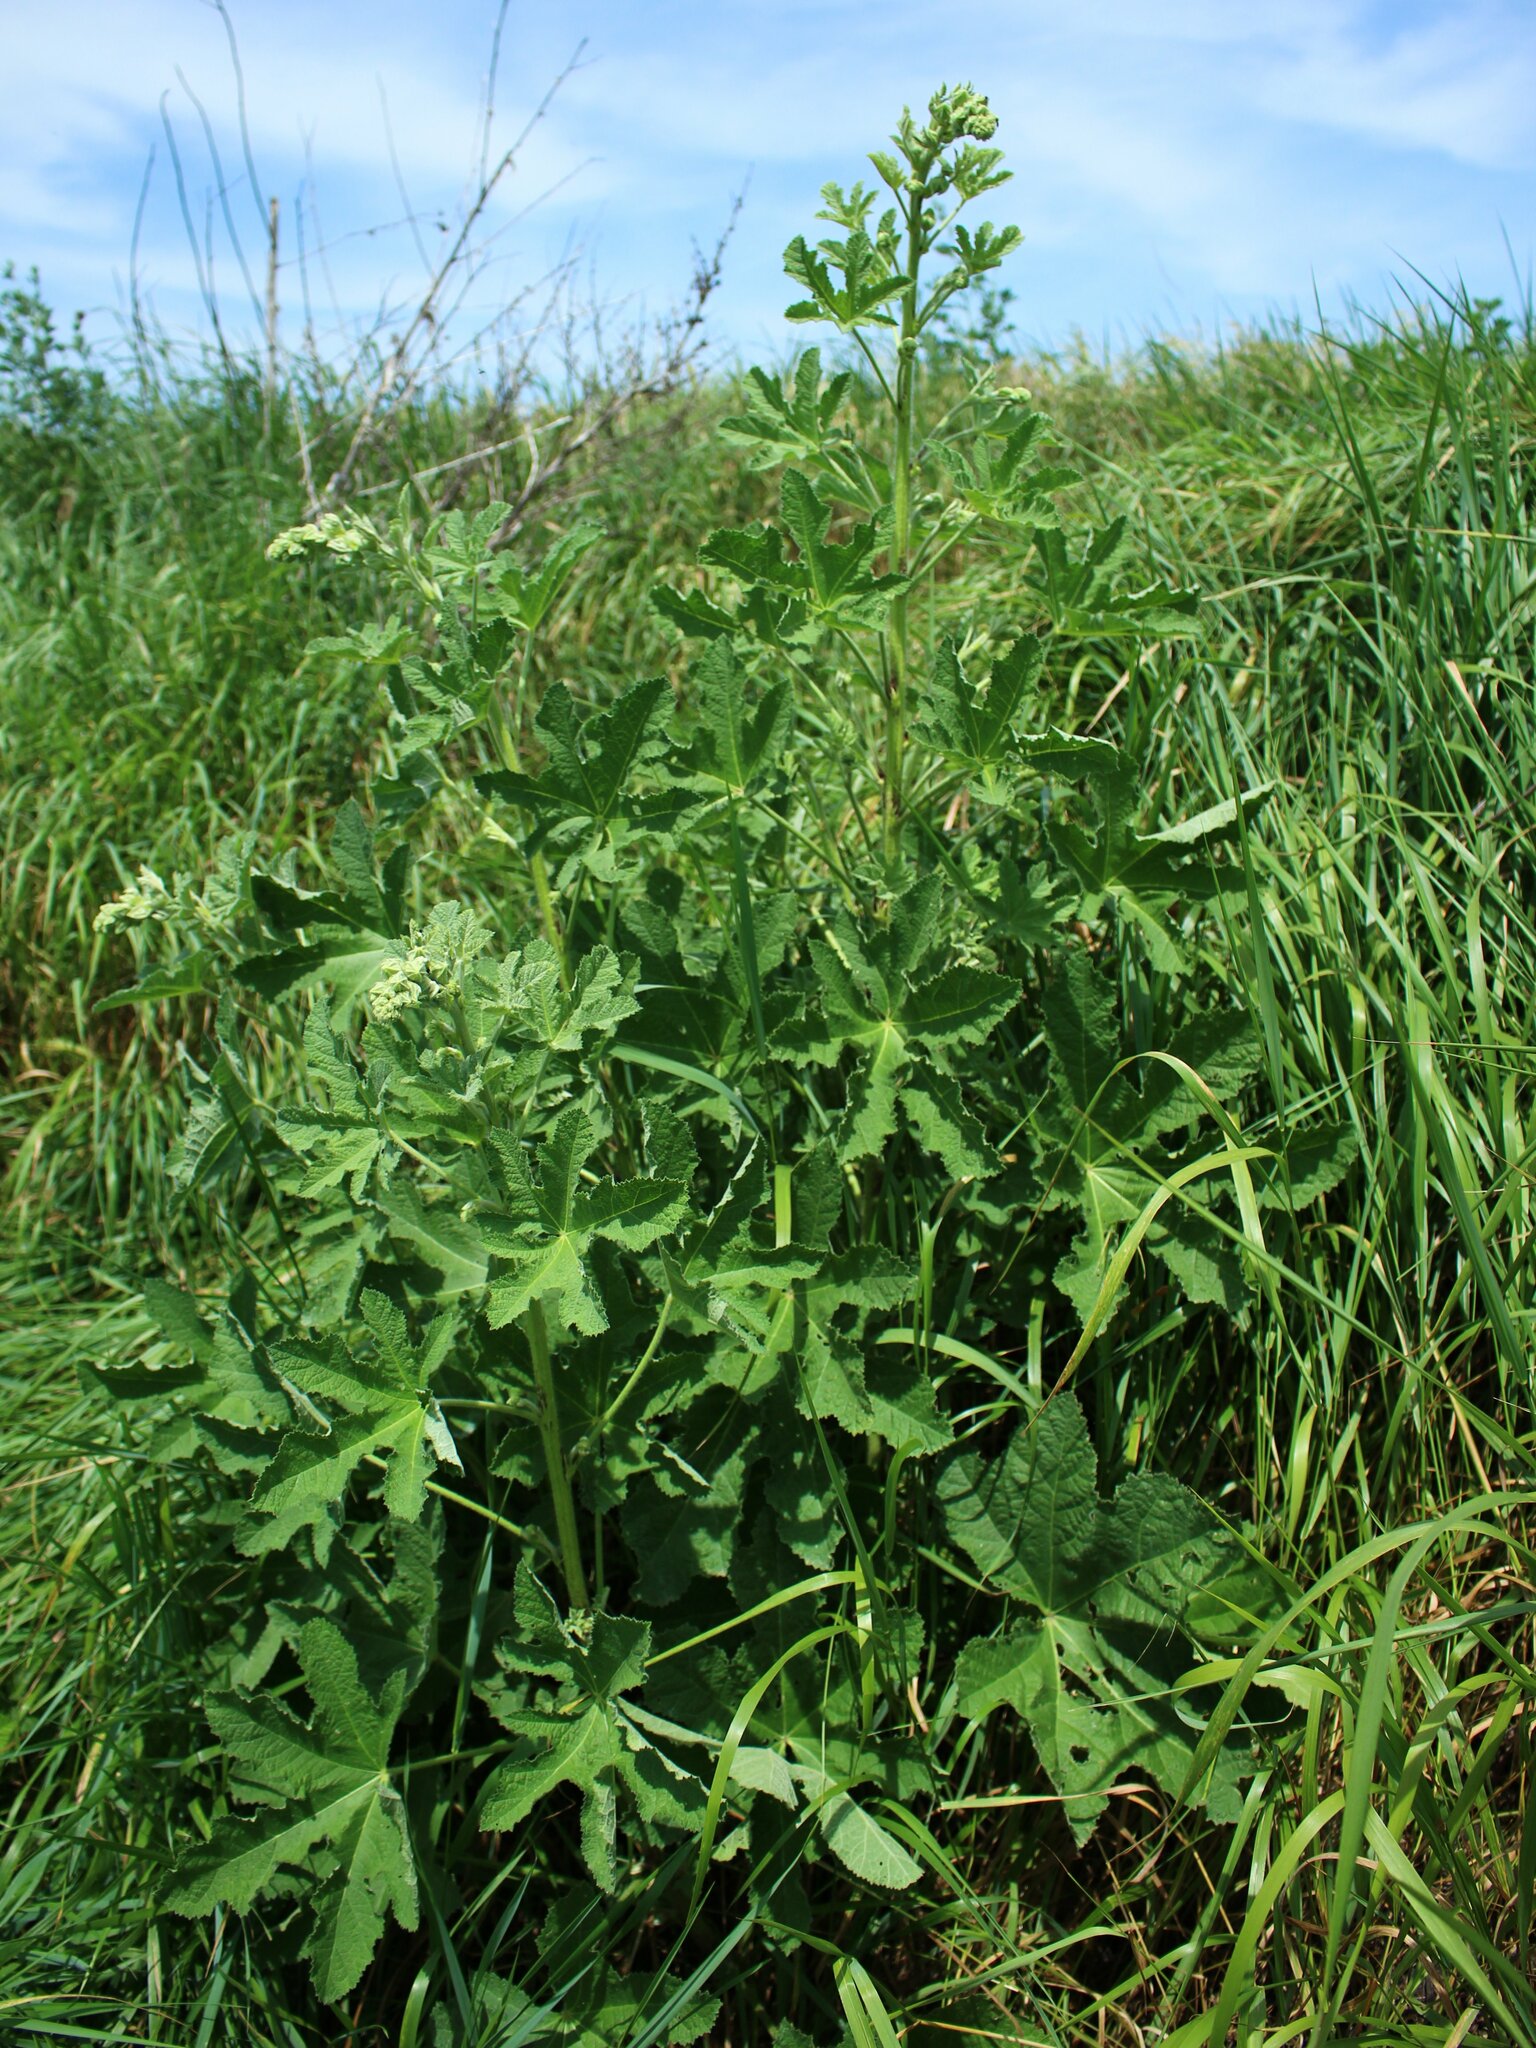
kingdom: Plantae
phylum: Tracheophyta
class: Magnoliopsida
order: Malvales
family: Malvaceae
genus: Alcea
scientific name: Alcea rugosa
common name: Russian hollyhock
